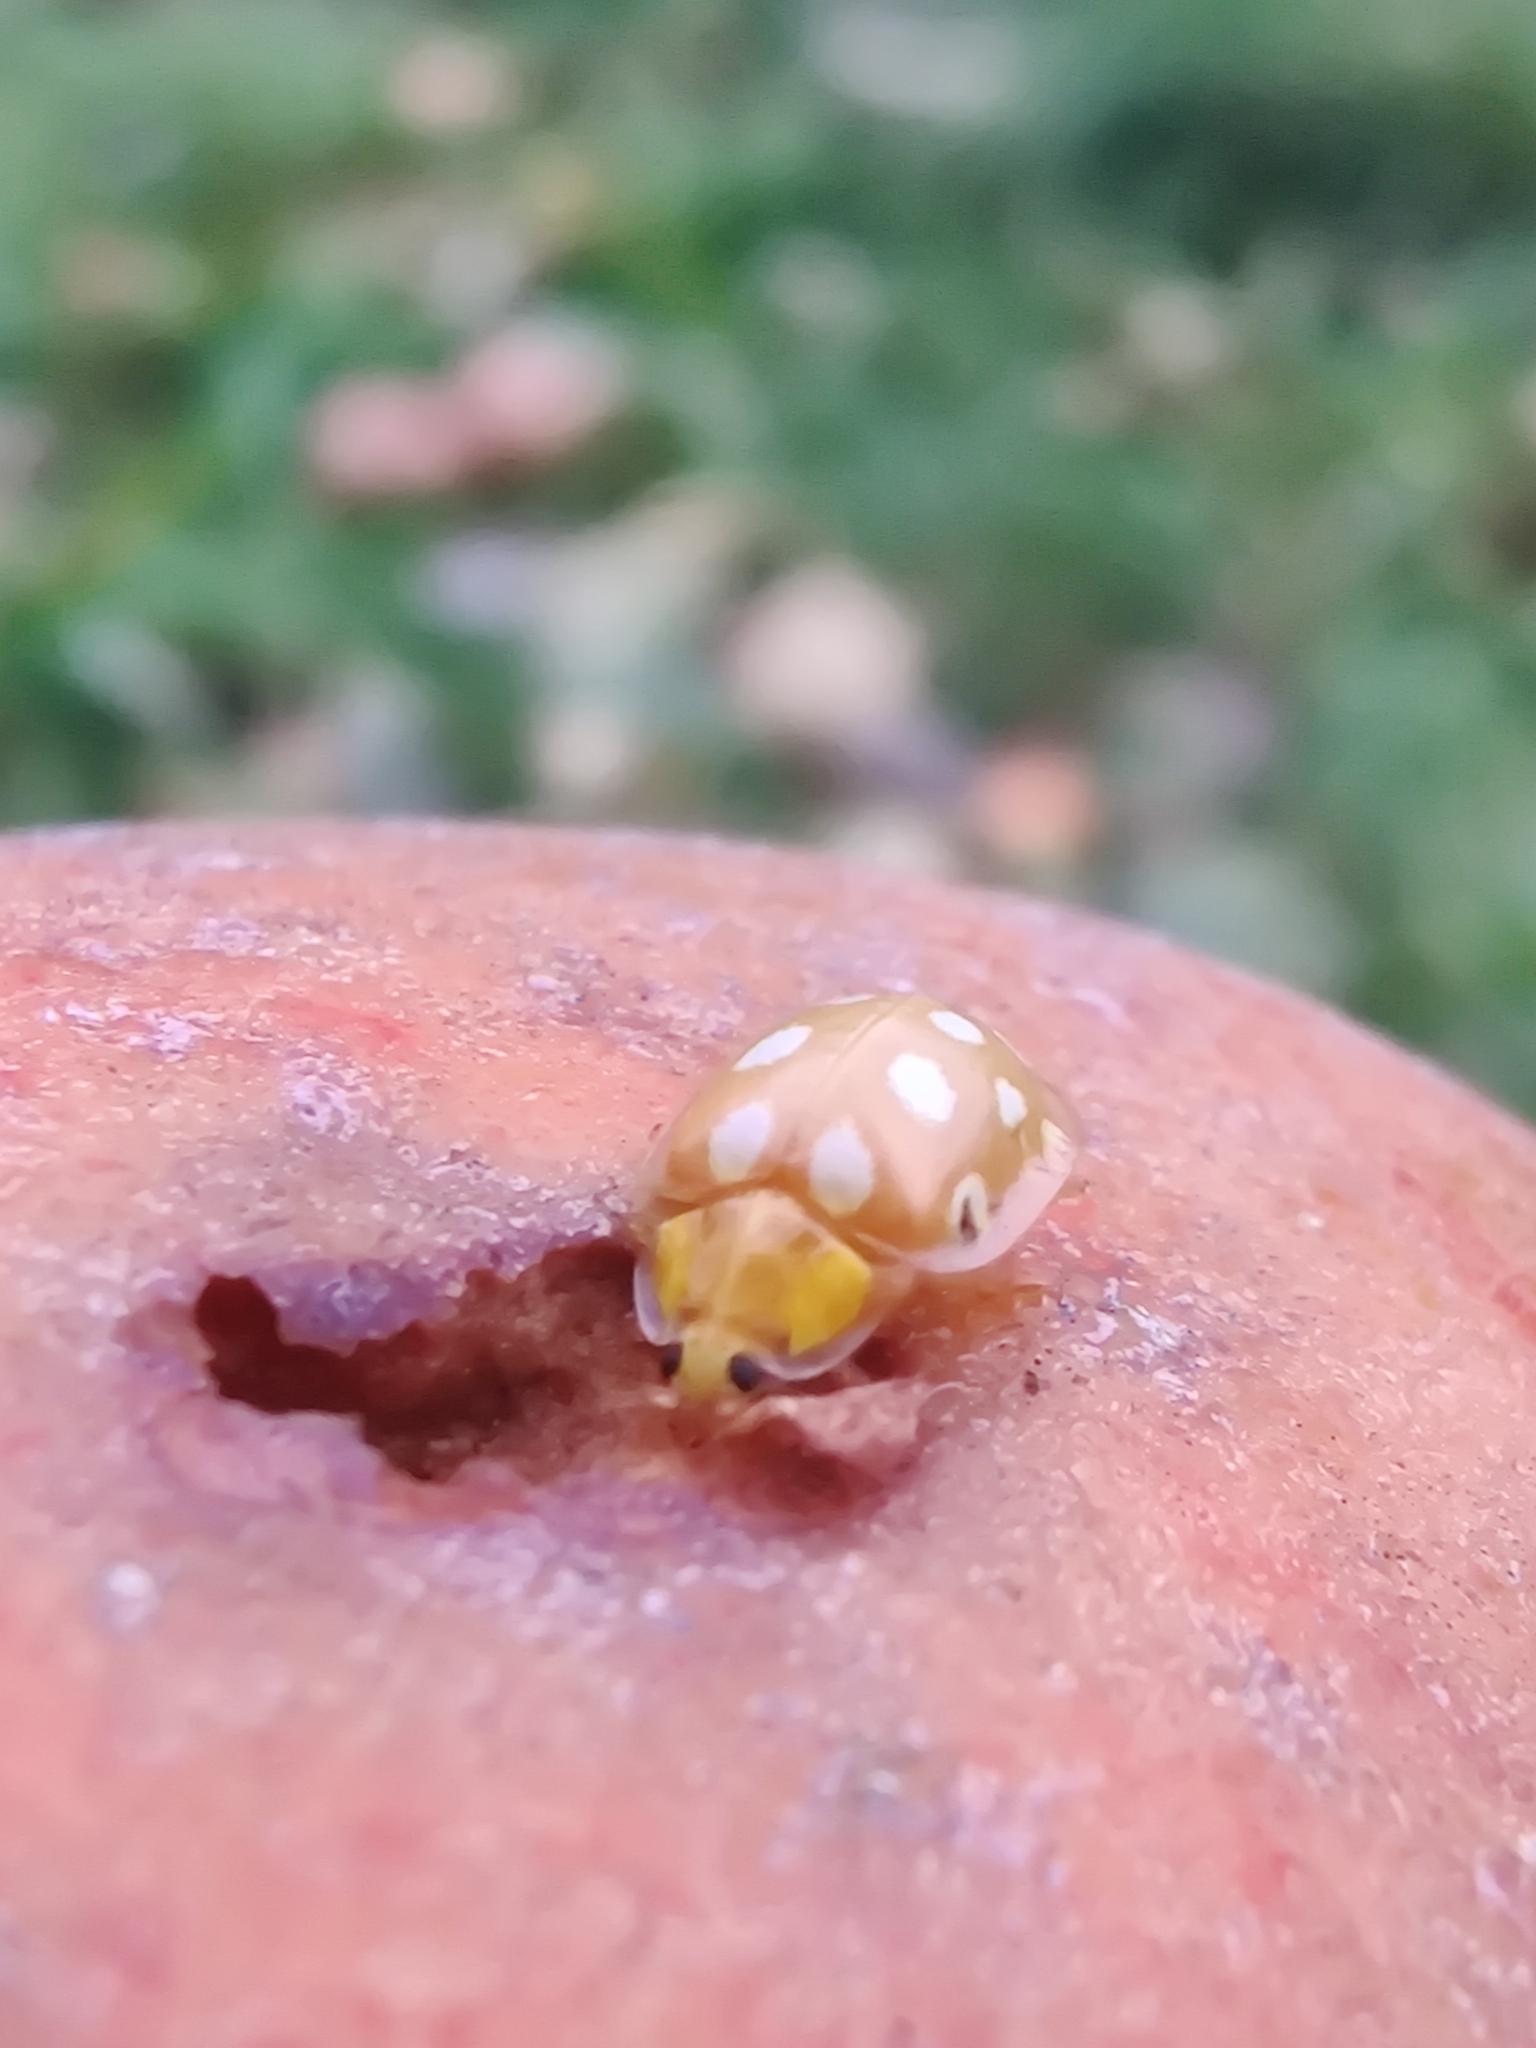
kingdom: Animalia
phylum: Arthropoda
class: Insecta
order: Coleoptera
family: Coccinellidae
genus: Halyzia
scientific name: Halyzia sedecimguttata
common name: Orange ladybird
